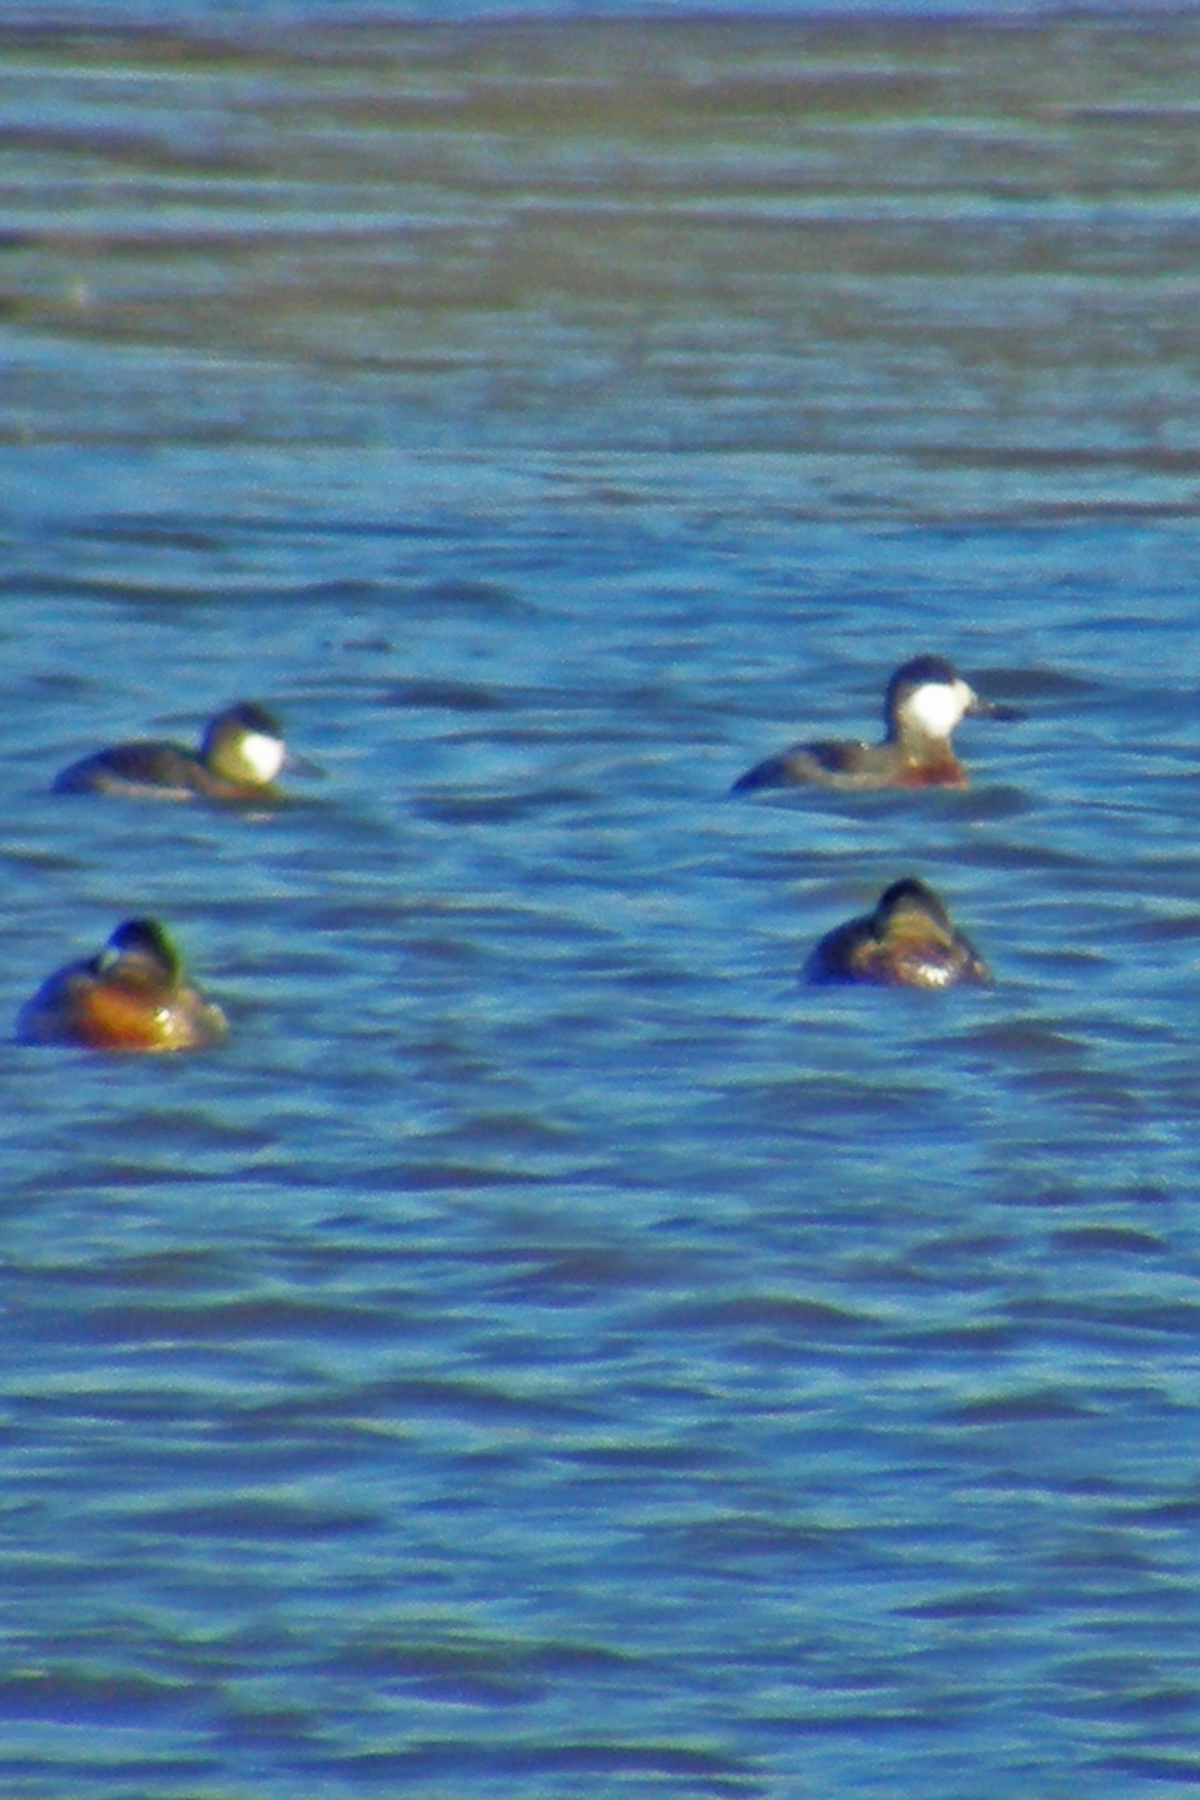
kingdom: Animalia
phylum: Chordata
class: Aves
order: Anseriformes
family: Anatidae
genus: Oxyura
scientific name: Oxyura jamaicensis
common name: Ruddy duck
